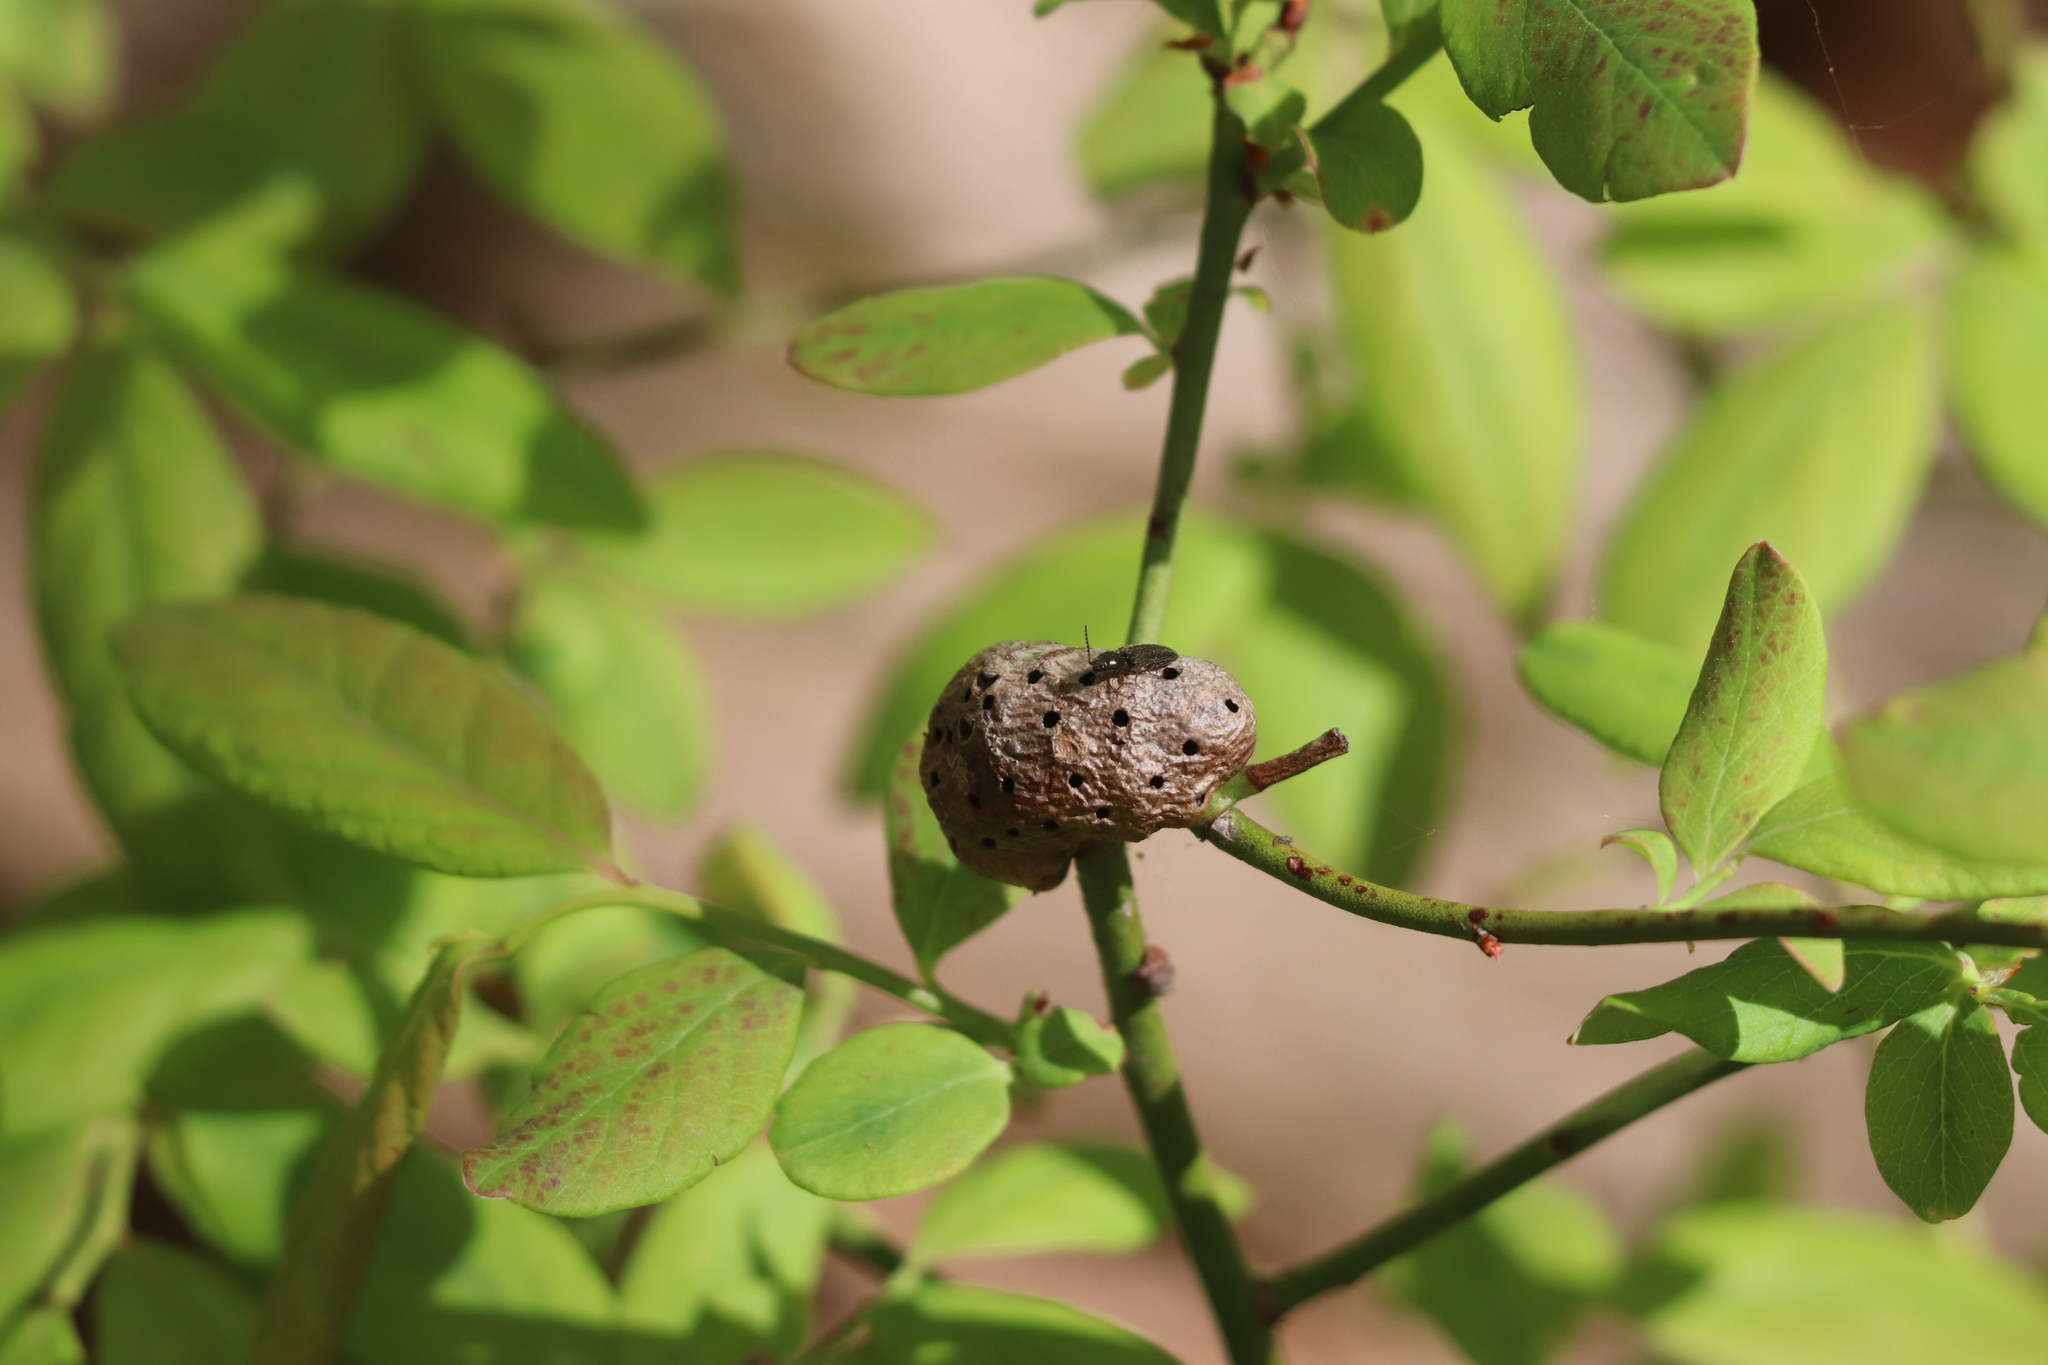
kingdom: Animalia
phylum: Arthropoda
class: Insecta
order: Hymenoptera
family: Pteromalidae
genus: Hemadas
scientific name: Hemadas nubilipennis
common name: Blueberry stem gall wasp
